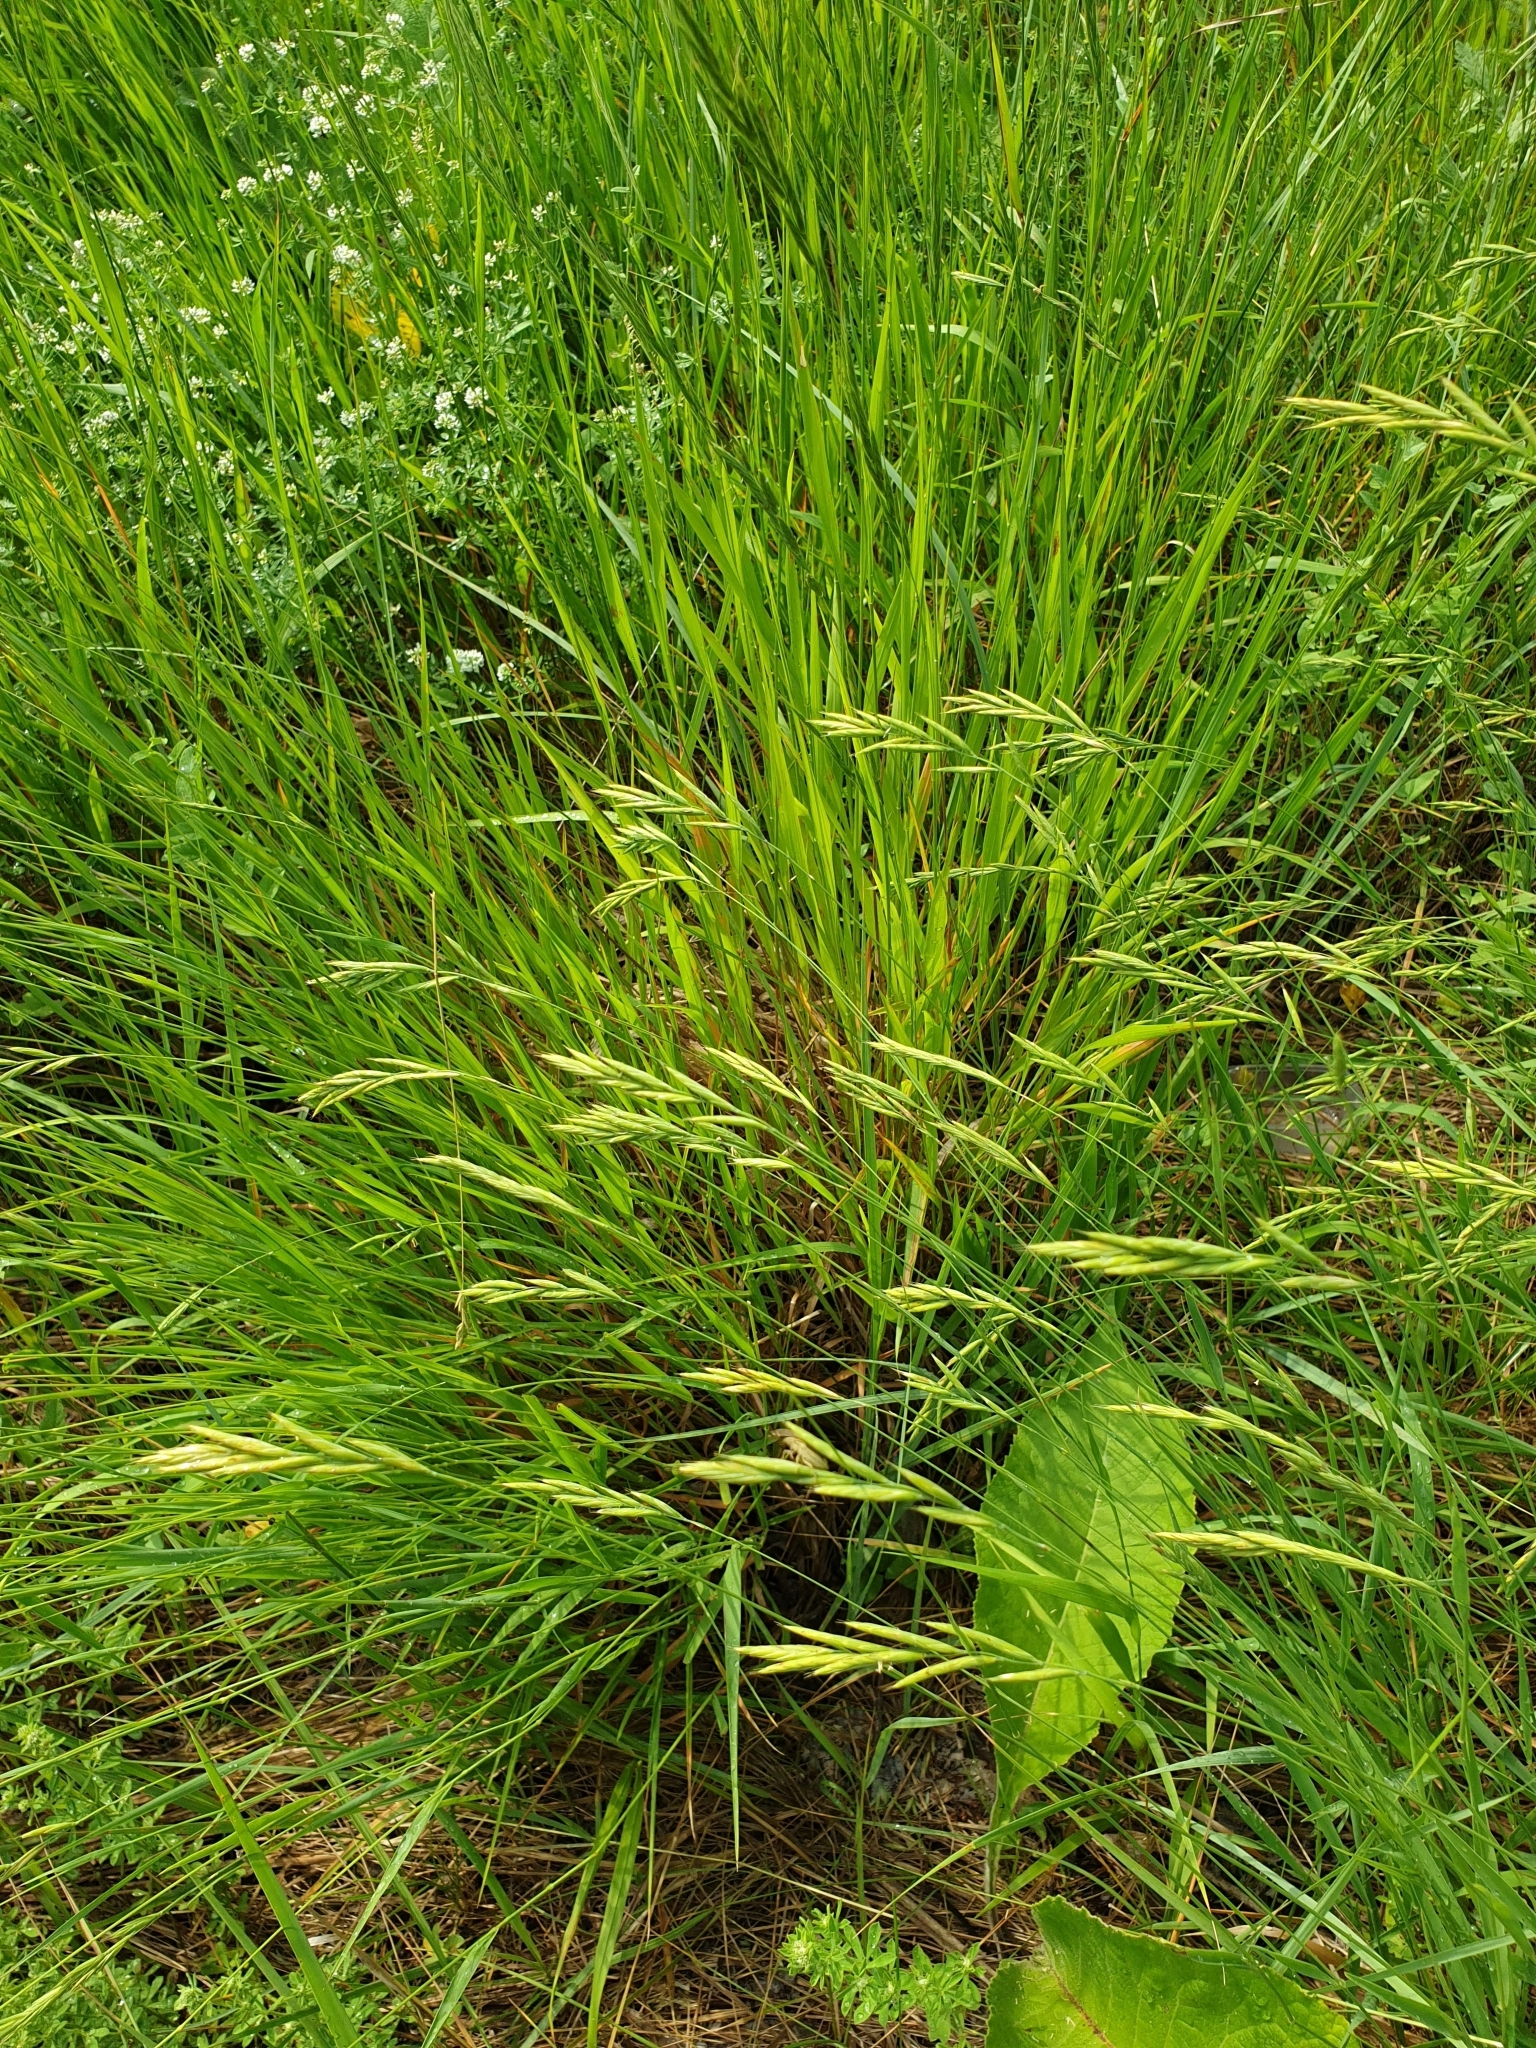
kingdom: Plantae
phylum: Tracheophyta
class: Liliopsida
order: Poales
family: Poaceae
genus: Brachypodium
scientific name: Brachypodium pinnatum
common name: Tor grass
